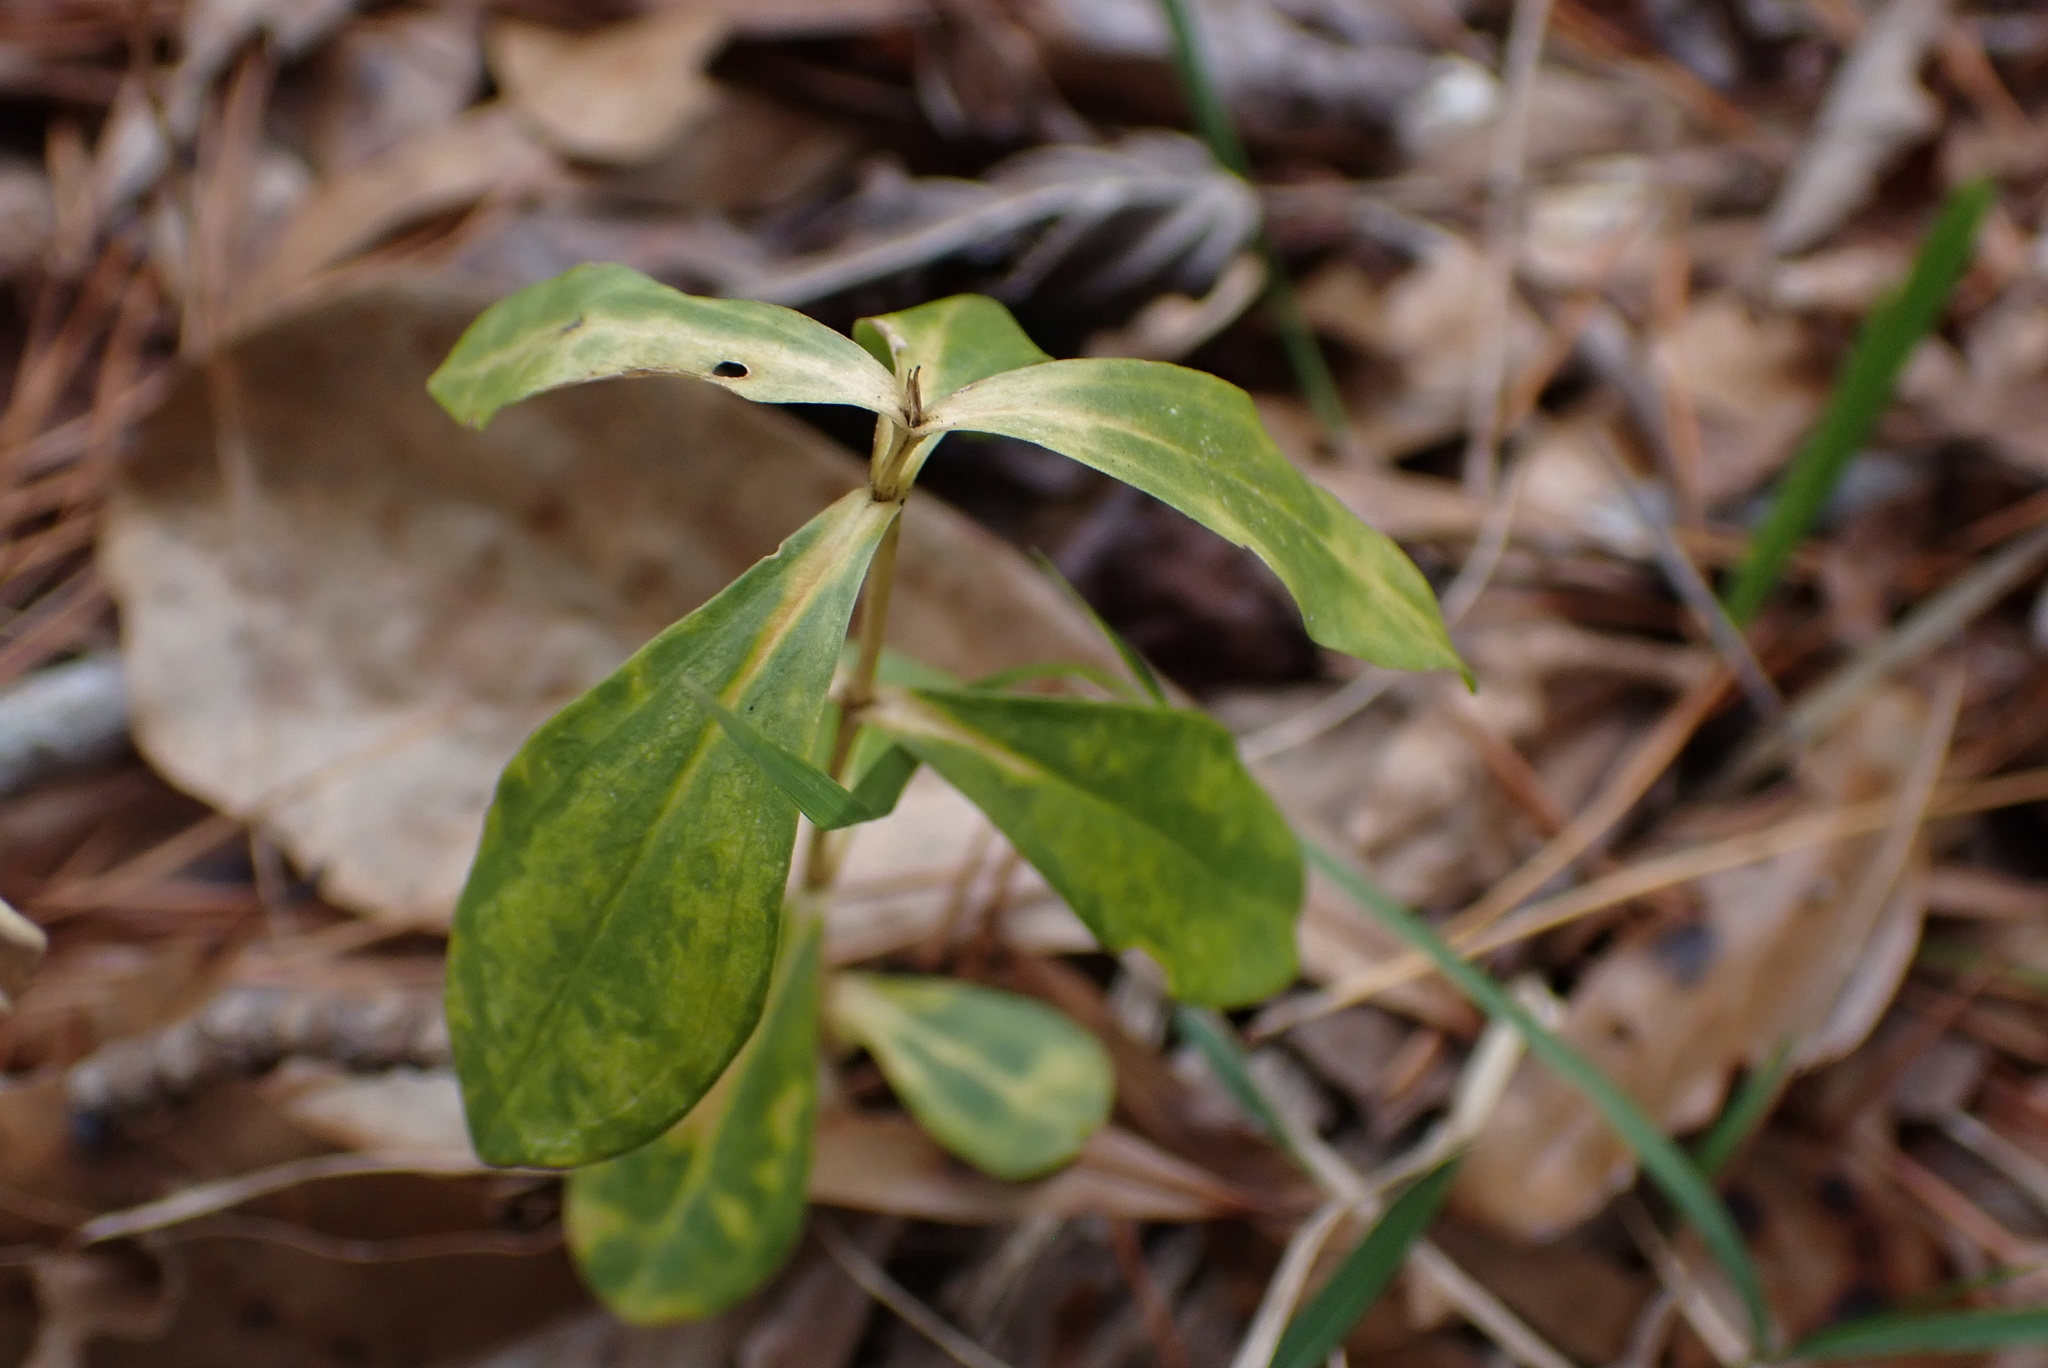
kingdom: Plantae
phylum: Tracheophyta
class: Magnoliopsida
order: Gentianales
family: Gentianaceae
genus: Gentiana
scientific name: Gentiana villosa
